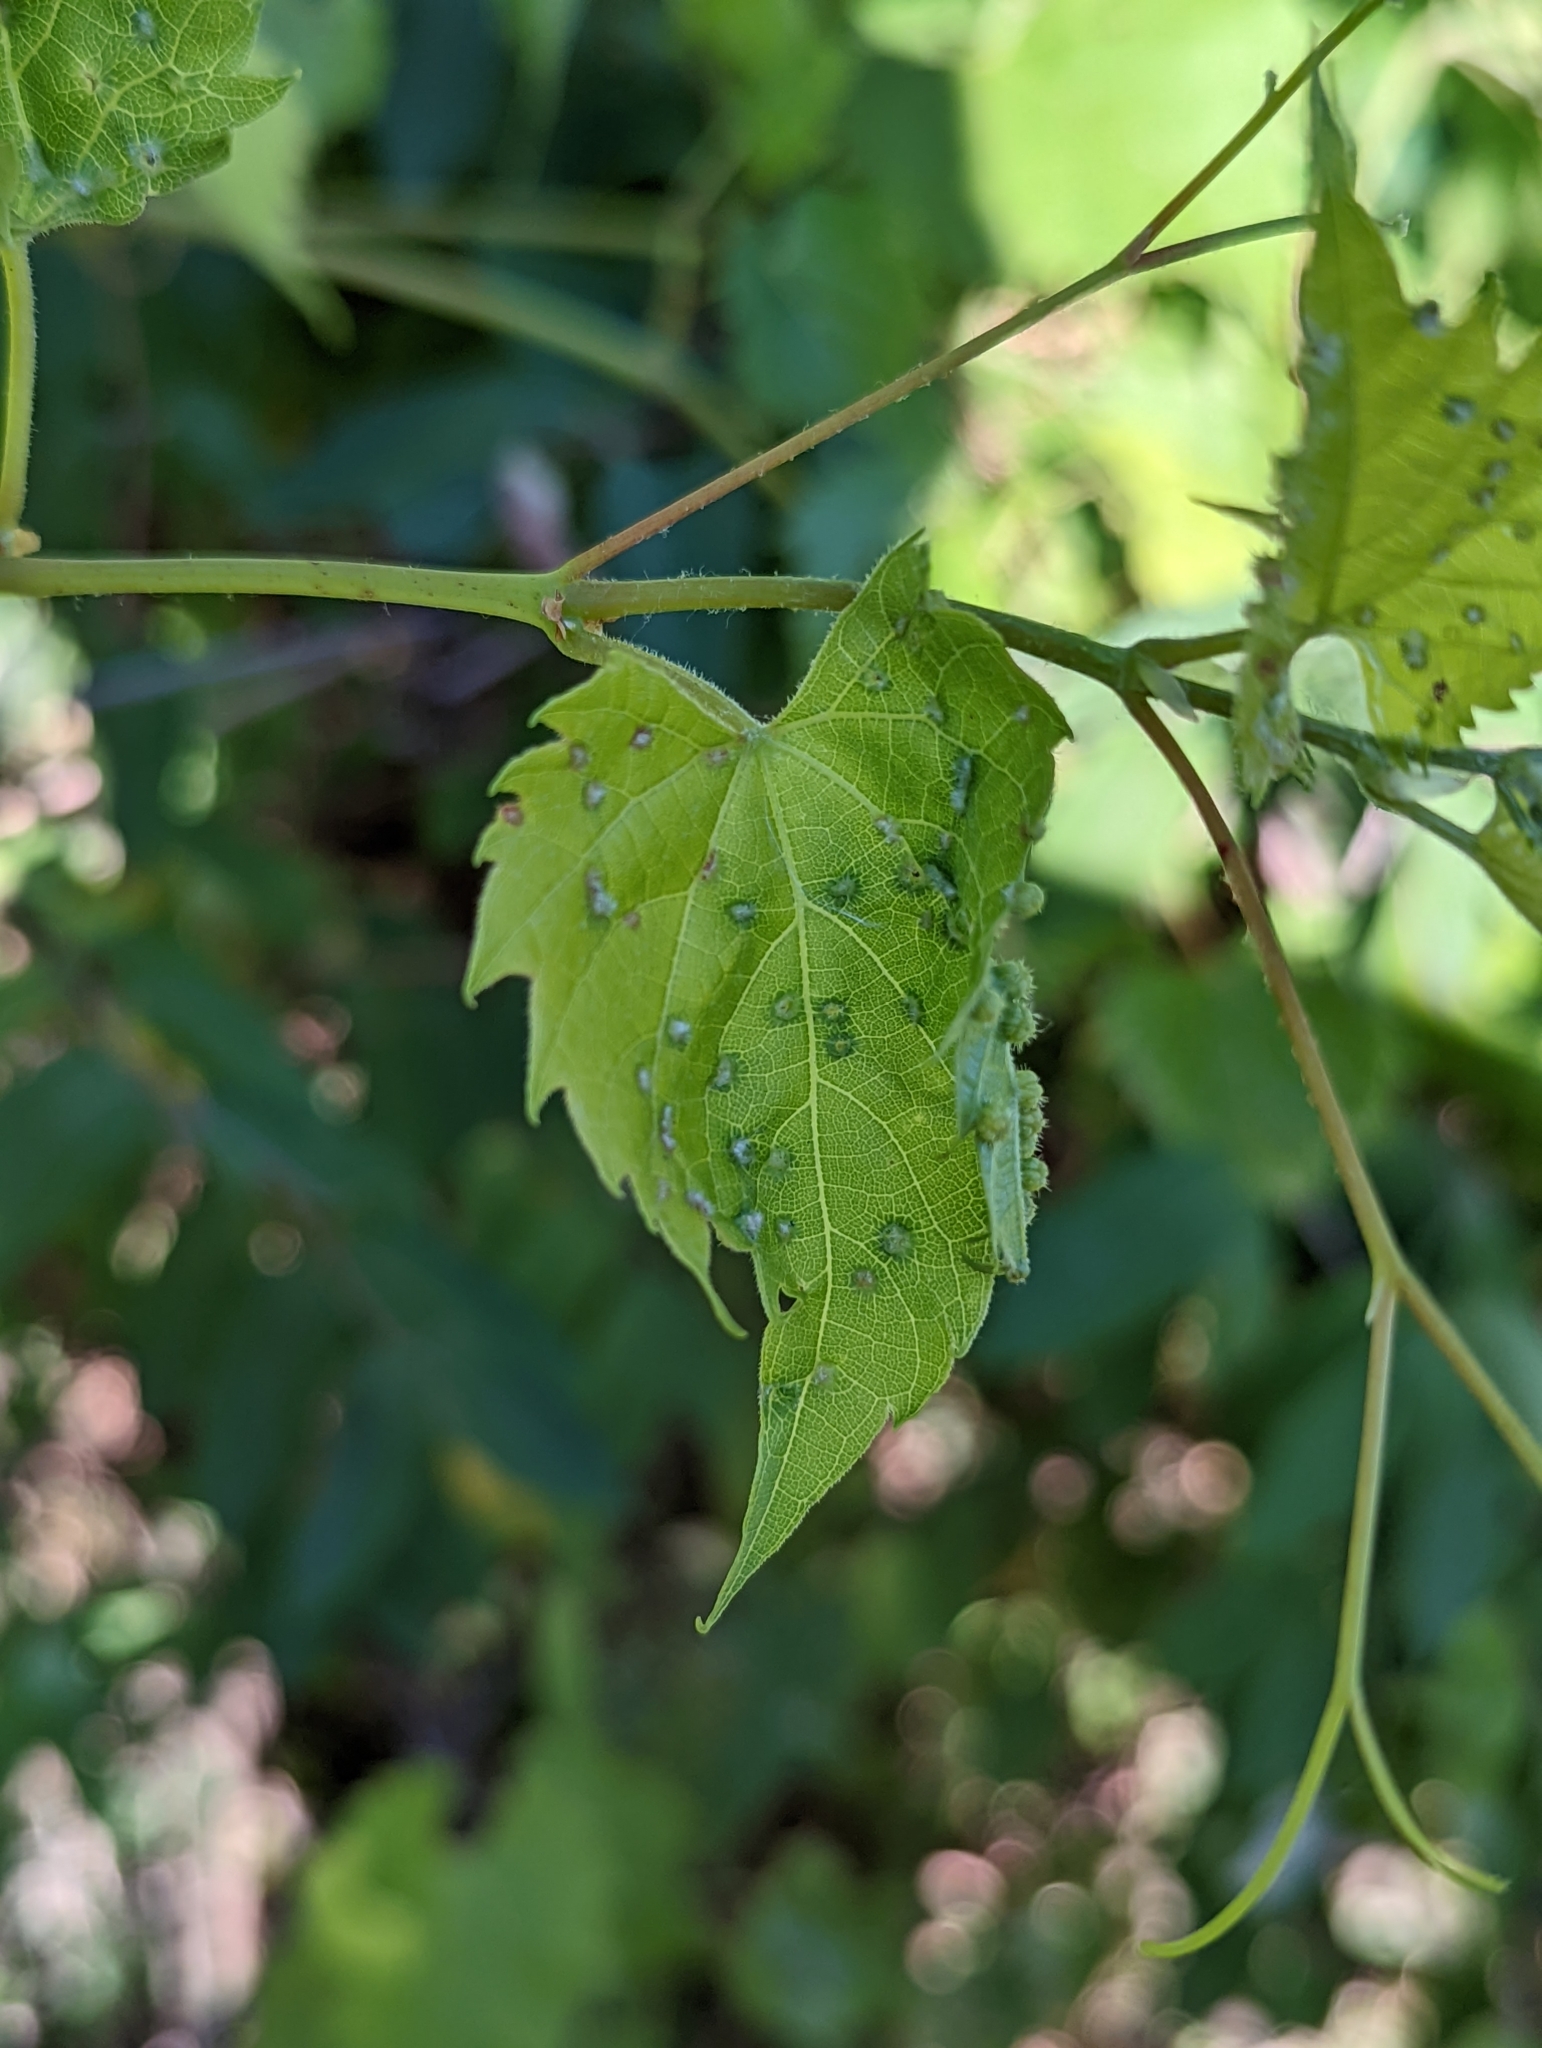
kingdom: Animalia
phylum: Arthropoda
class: Insecta
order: Hemiptera
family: Phylloxeridae
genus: Daktulosphaira
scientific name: Daktulosphaira vitifoliae
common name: Grape phylloxera
